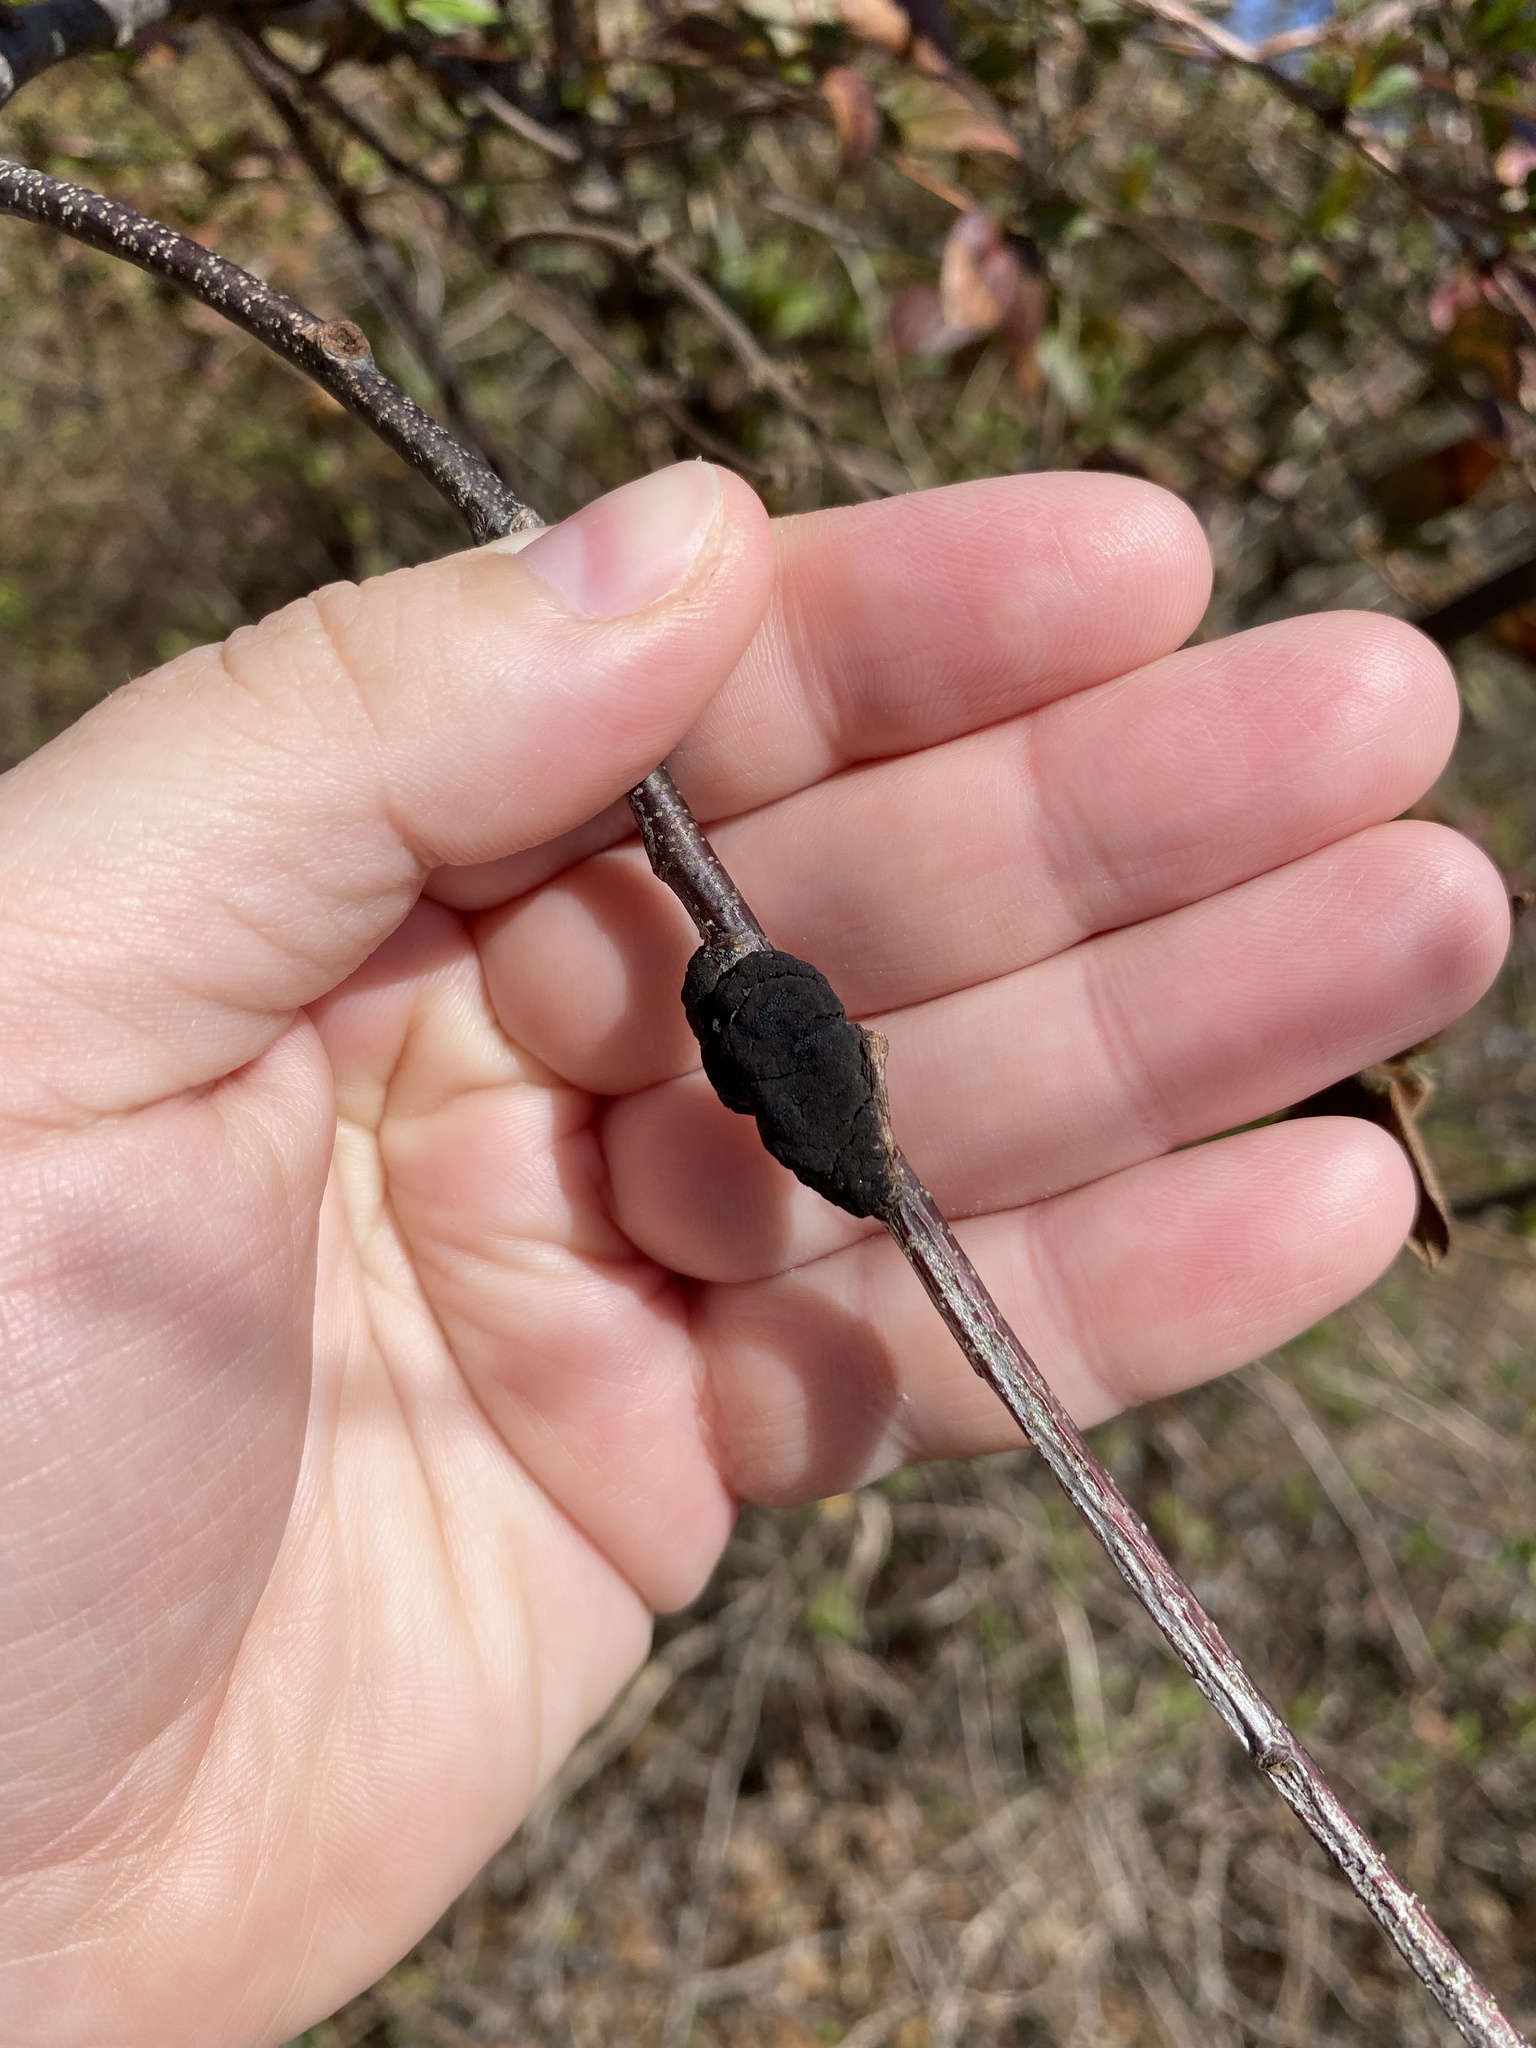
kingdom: Fungi
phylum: Ascomycota
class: Dothideomycetes
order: Venturiales
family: Venturiaceae
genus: Apiosporina
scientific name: Apiosporina morbosa
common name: Black knot
